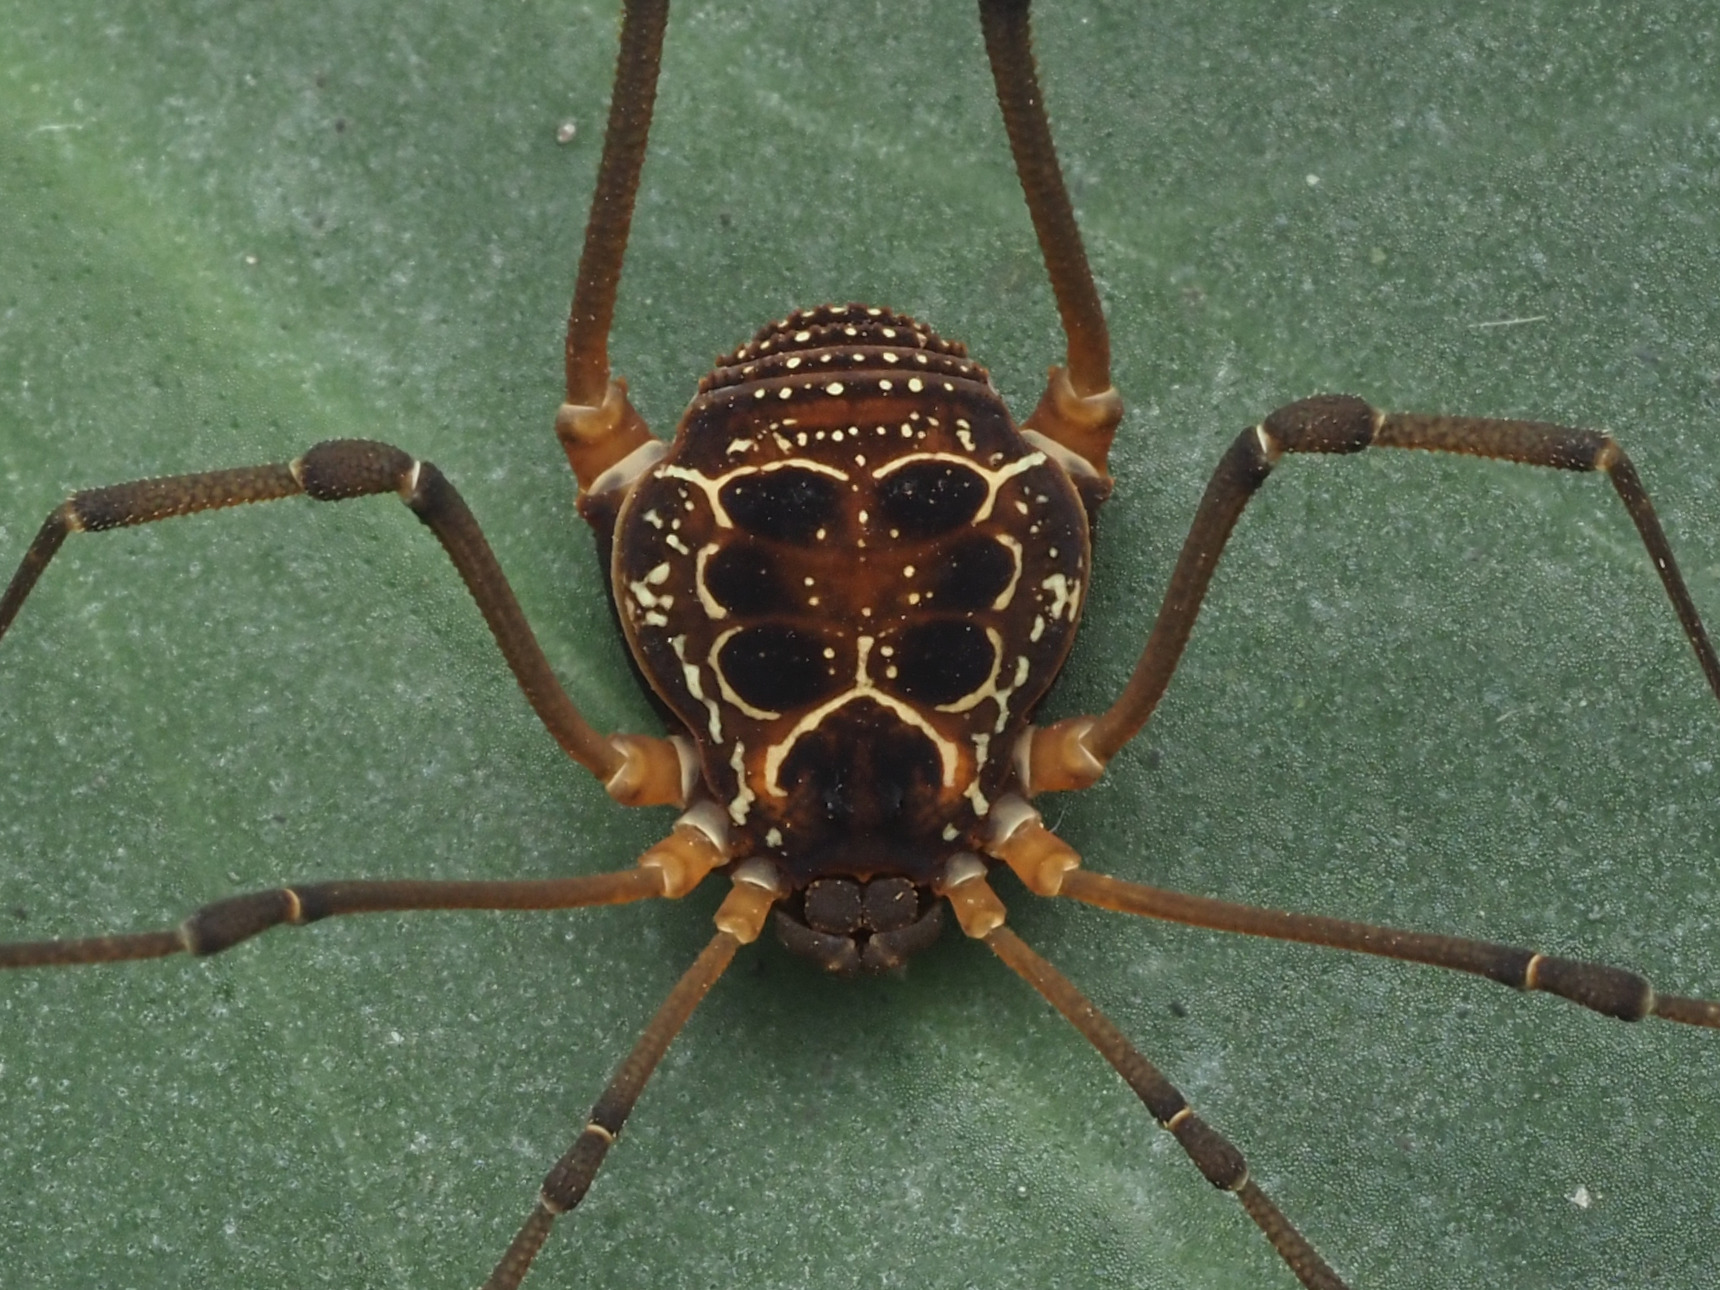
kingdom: Animalia
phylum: Arthropoda
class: Arachnida
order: Opiliones
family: Cosmetidae
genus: Eucynortula
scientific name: Eucynortula albipunctata
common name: Harvestmen
